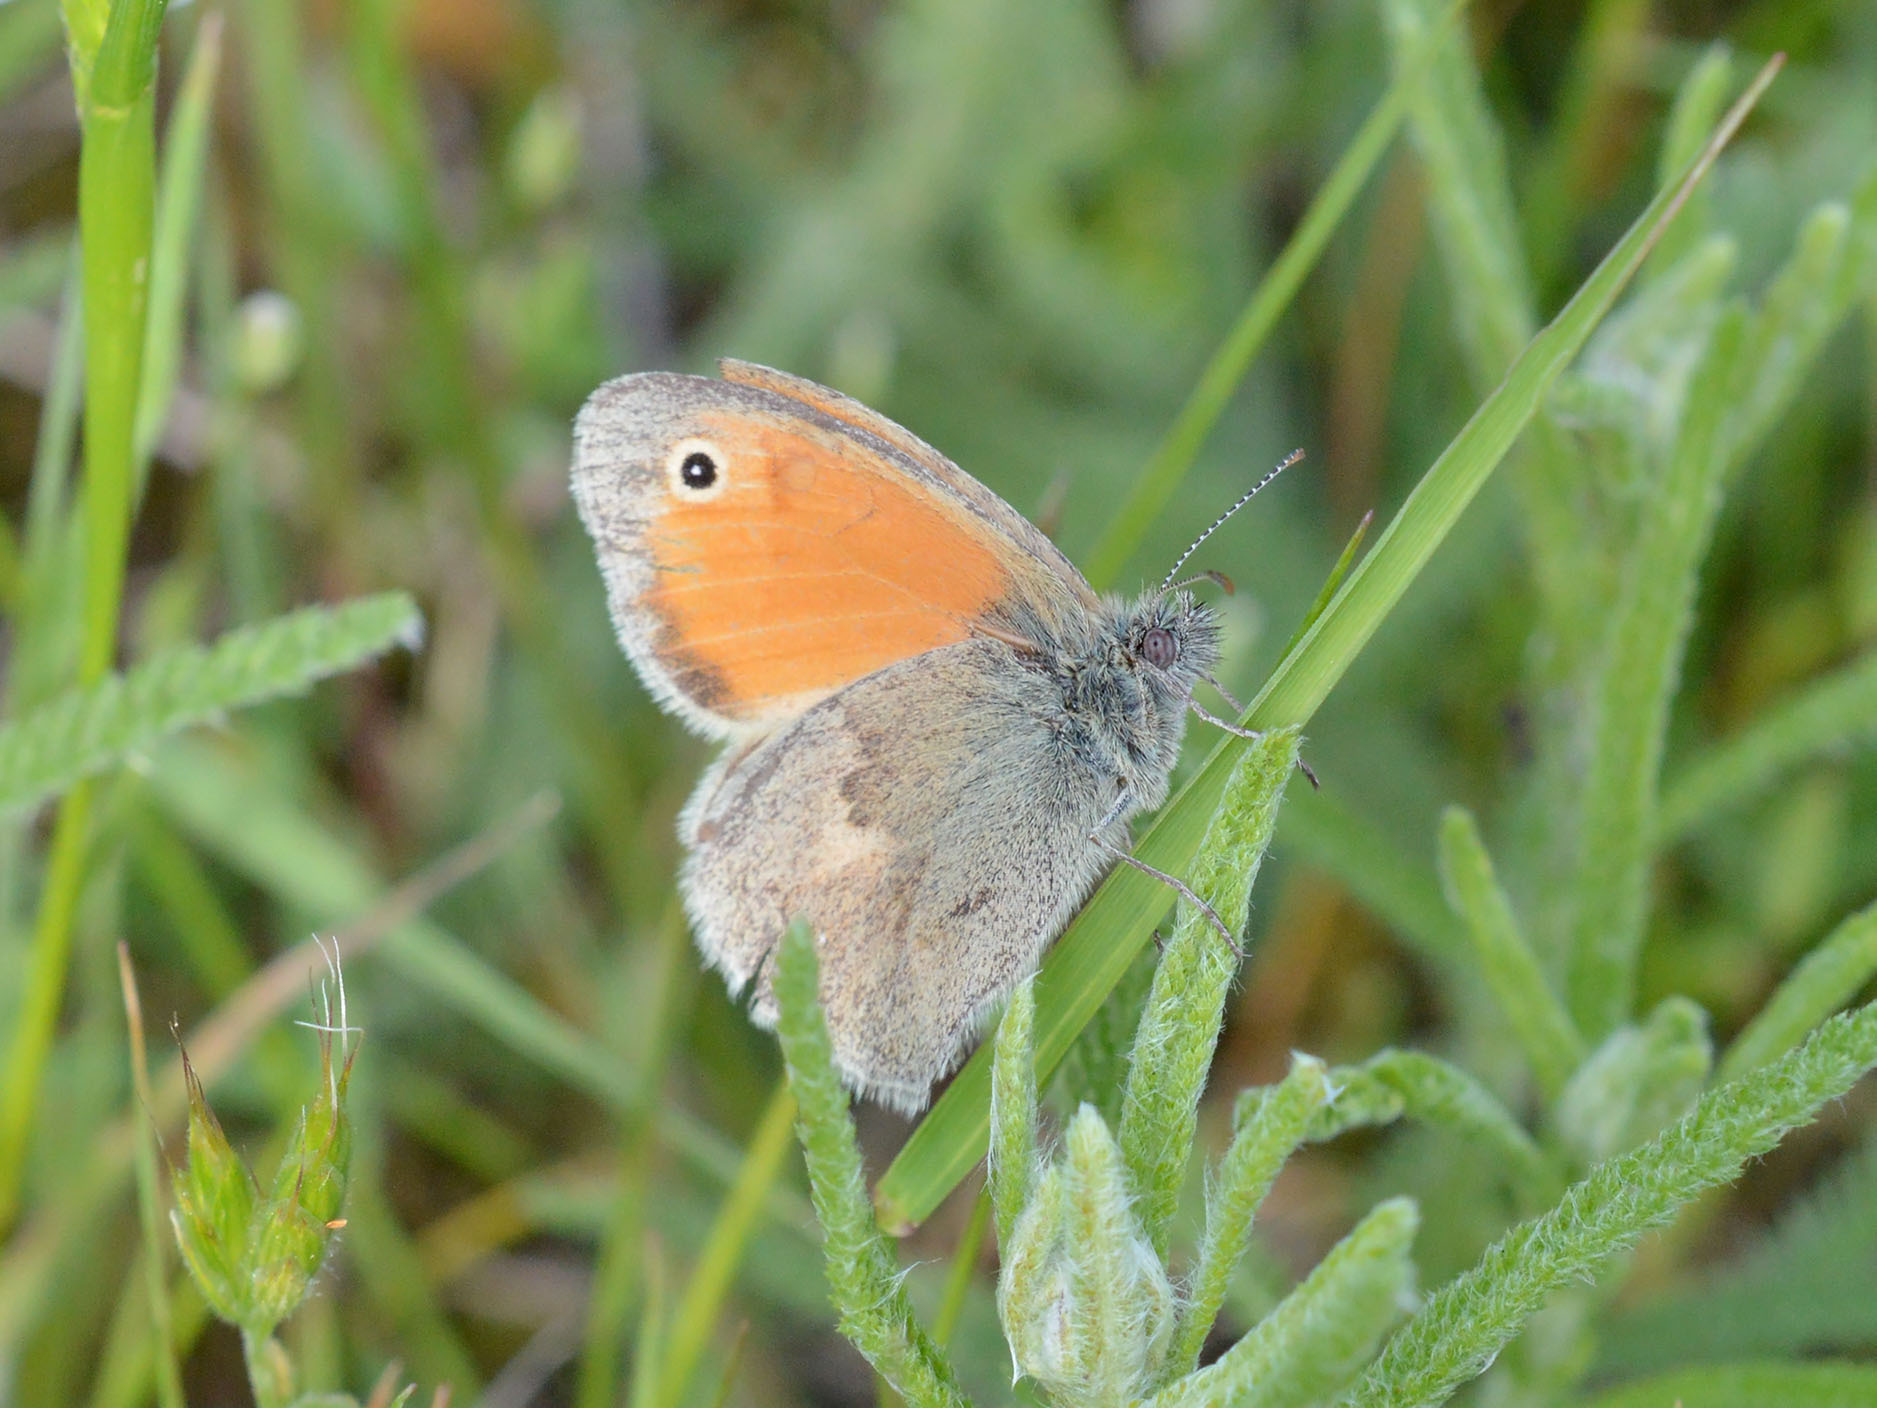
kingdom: Animalia
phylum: Arthropoda
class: Insecta
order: Lepidoptera
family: Nymphalidae
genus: Coenonympha
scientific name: Coenonympha pamphilus
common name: Small heath
